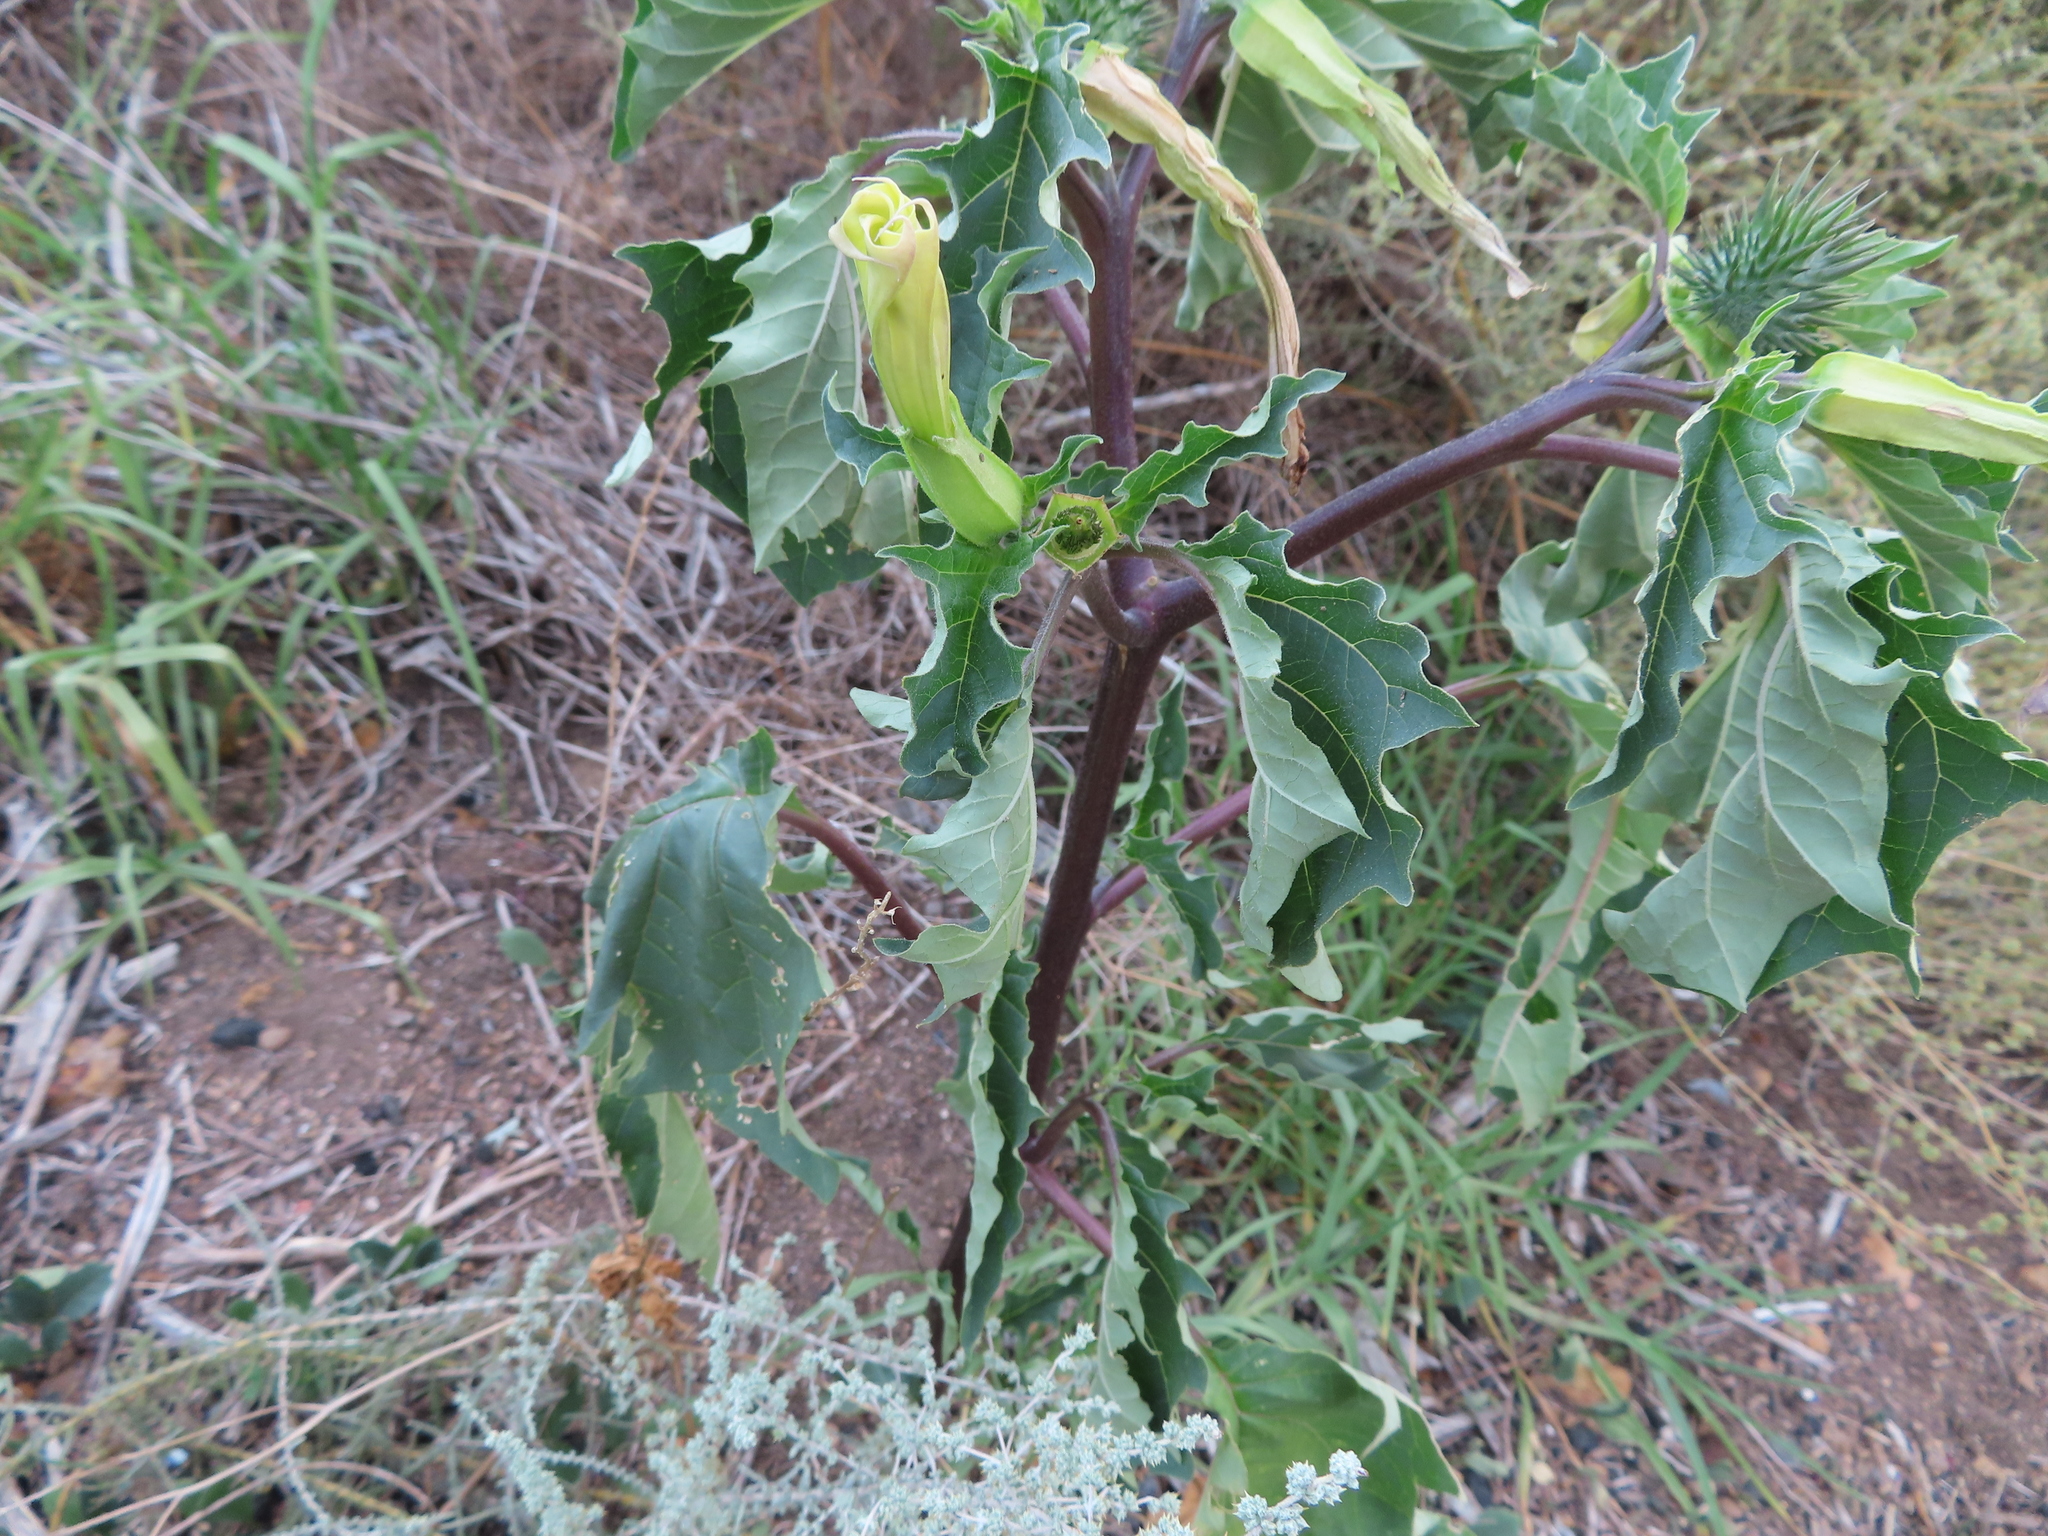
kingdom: Plantae
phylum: Tracheophyta
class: Magnoliopsida
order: Solanales
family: Solanaceae
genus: Datura
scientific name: Datura stramonium
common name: Thorn-apple
